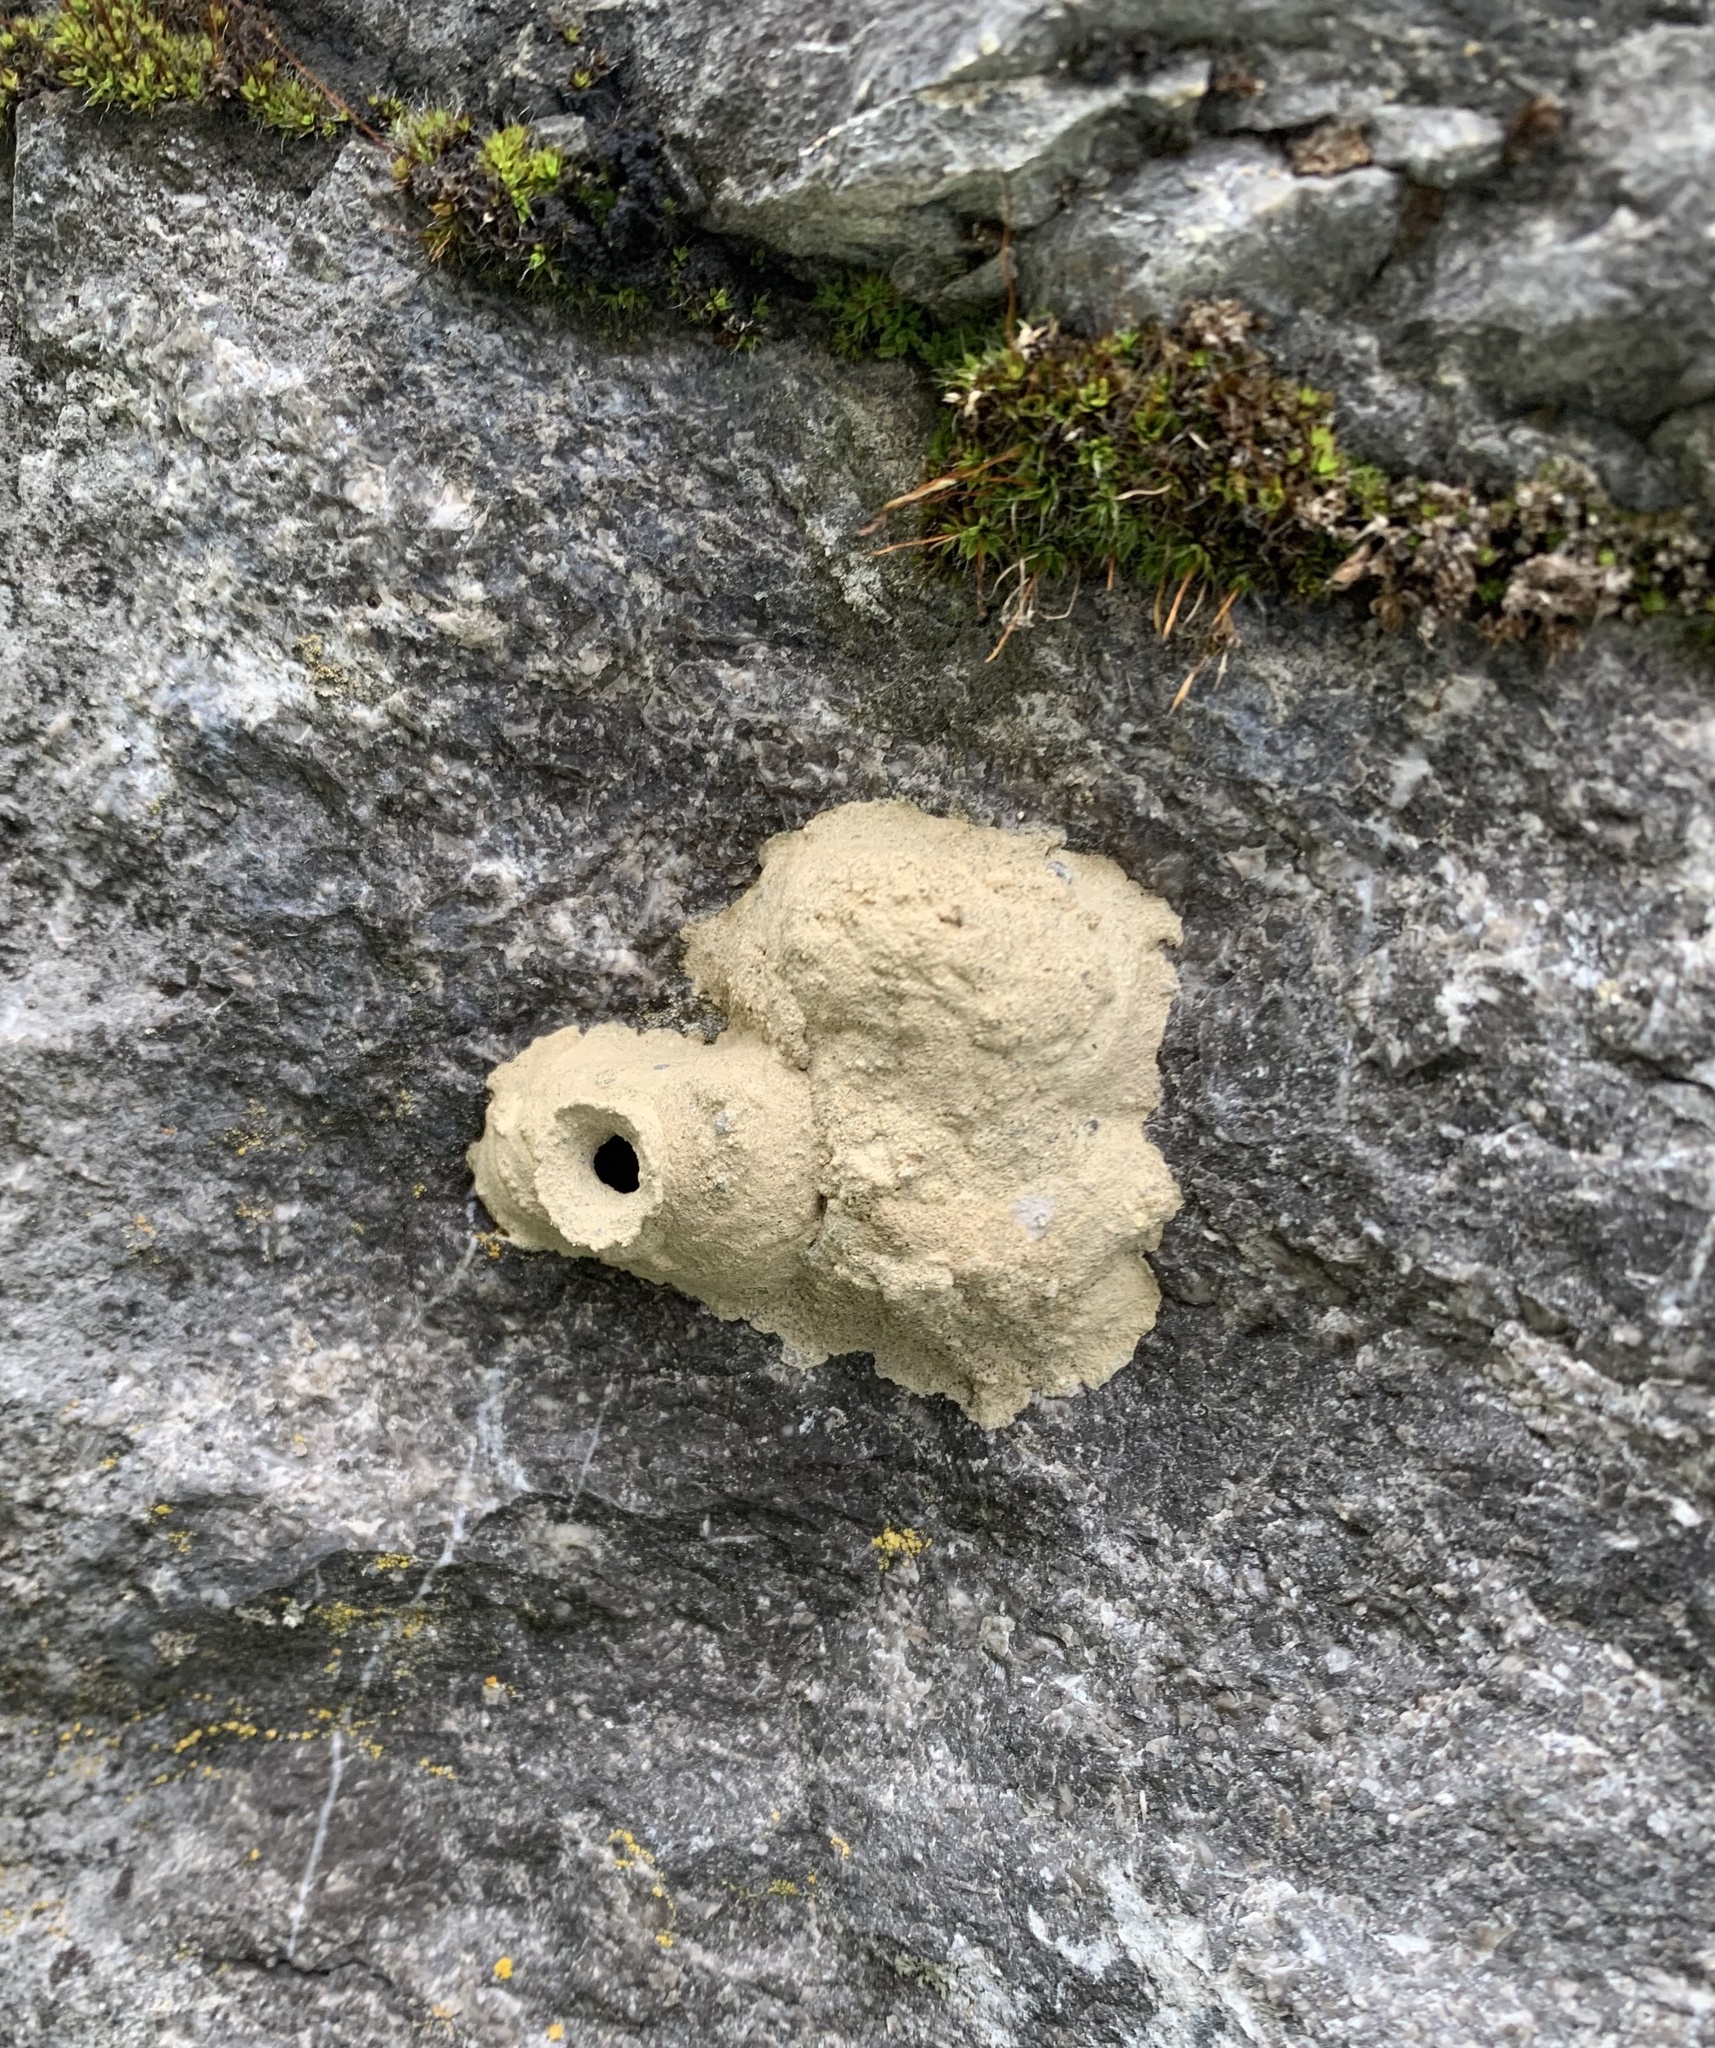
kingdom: Animalia
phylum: Arthropoda
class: Insecta
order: Hymenoptera
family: Vespidae
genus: Eumenes
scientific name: Eumenes
